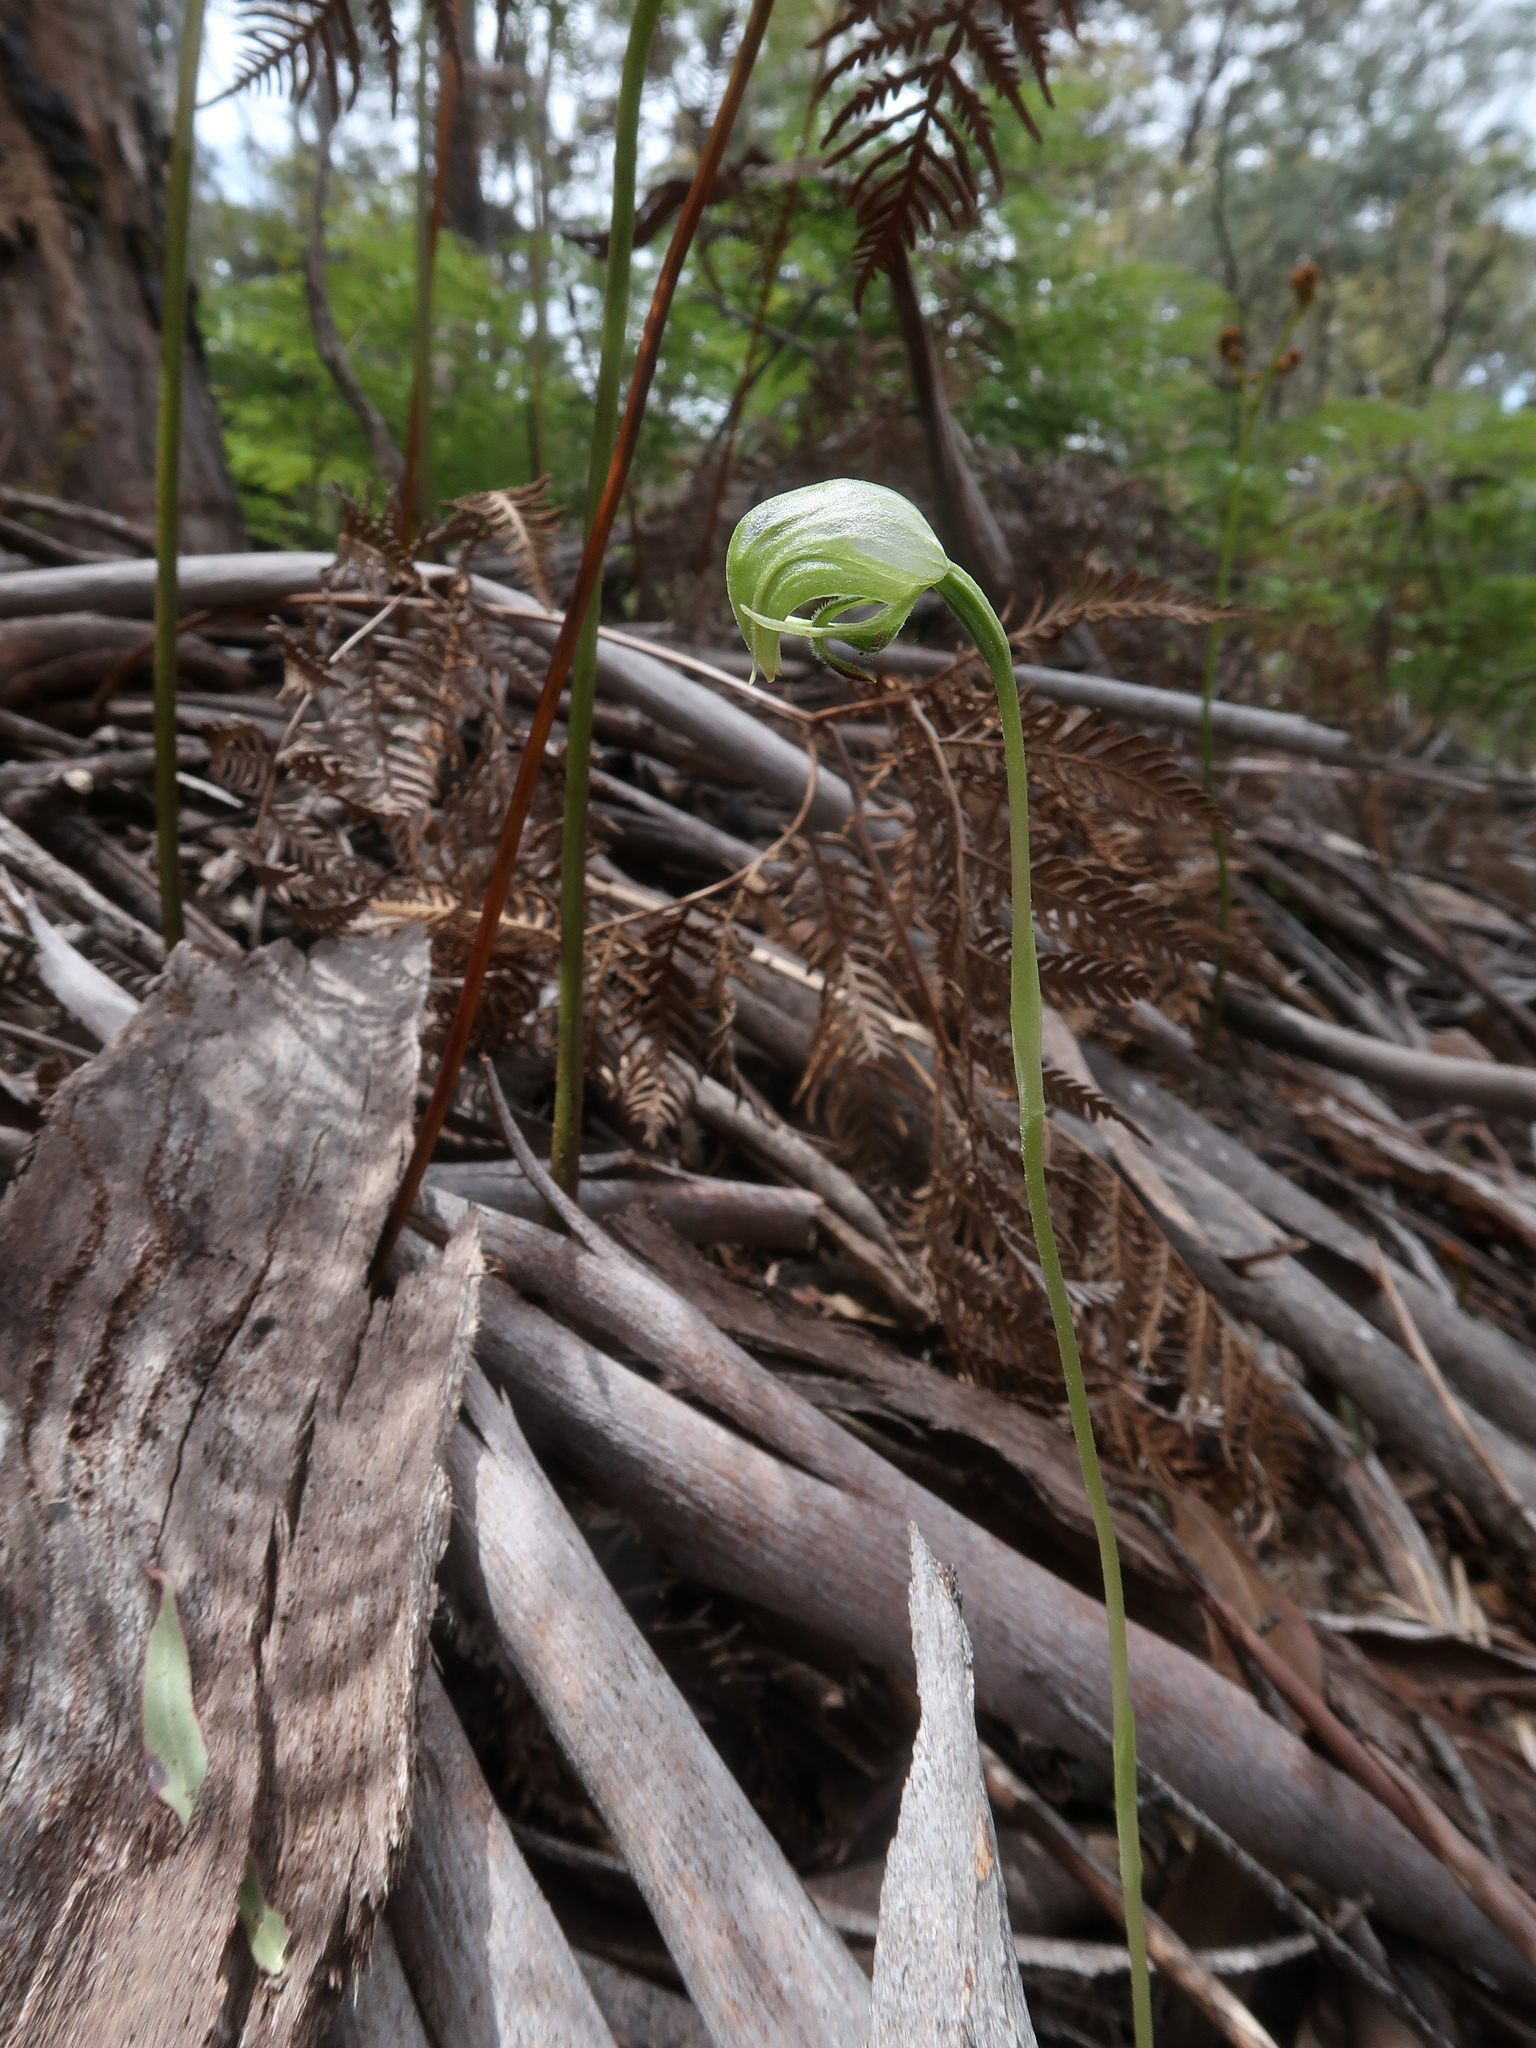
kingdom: Plantae
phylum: Tracheophyta
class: Liliopsida
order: Asparagales
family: Orchidaceae
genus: Pterostylis
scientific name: Pterostylis nutans
